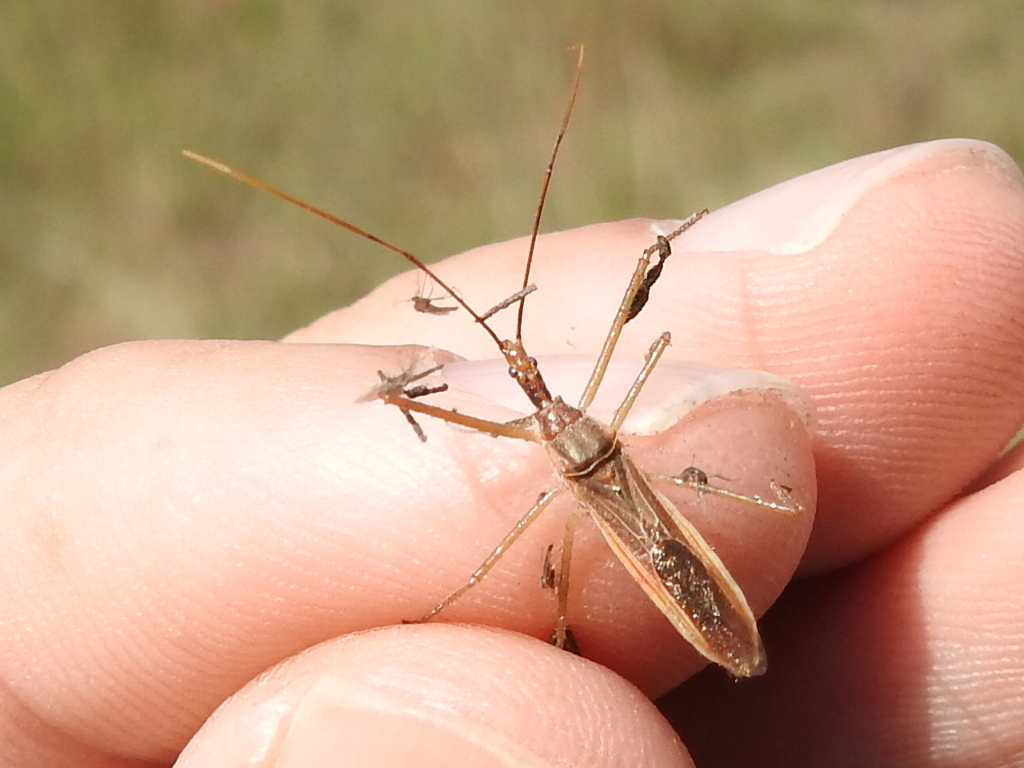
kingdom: Animalia
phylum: Arthropoda
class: Insecta
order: Hemiptera
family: Reduviidae
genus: Zelus
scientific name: Zelus cervicalis
